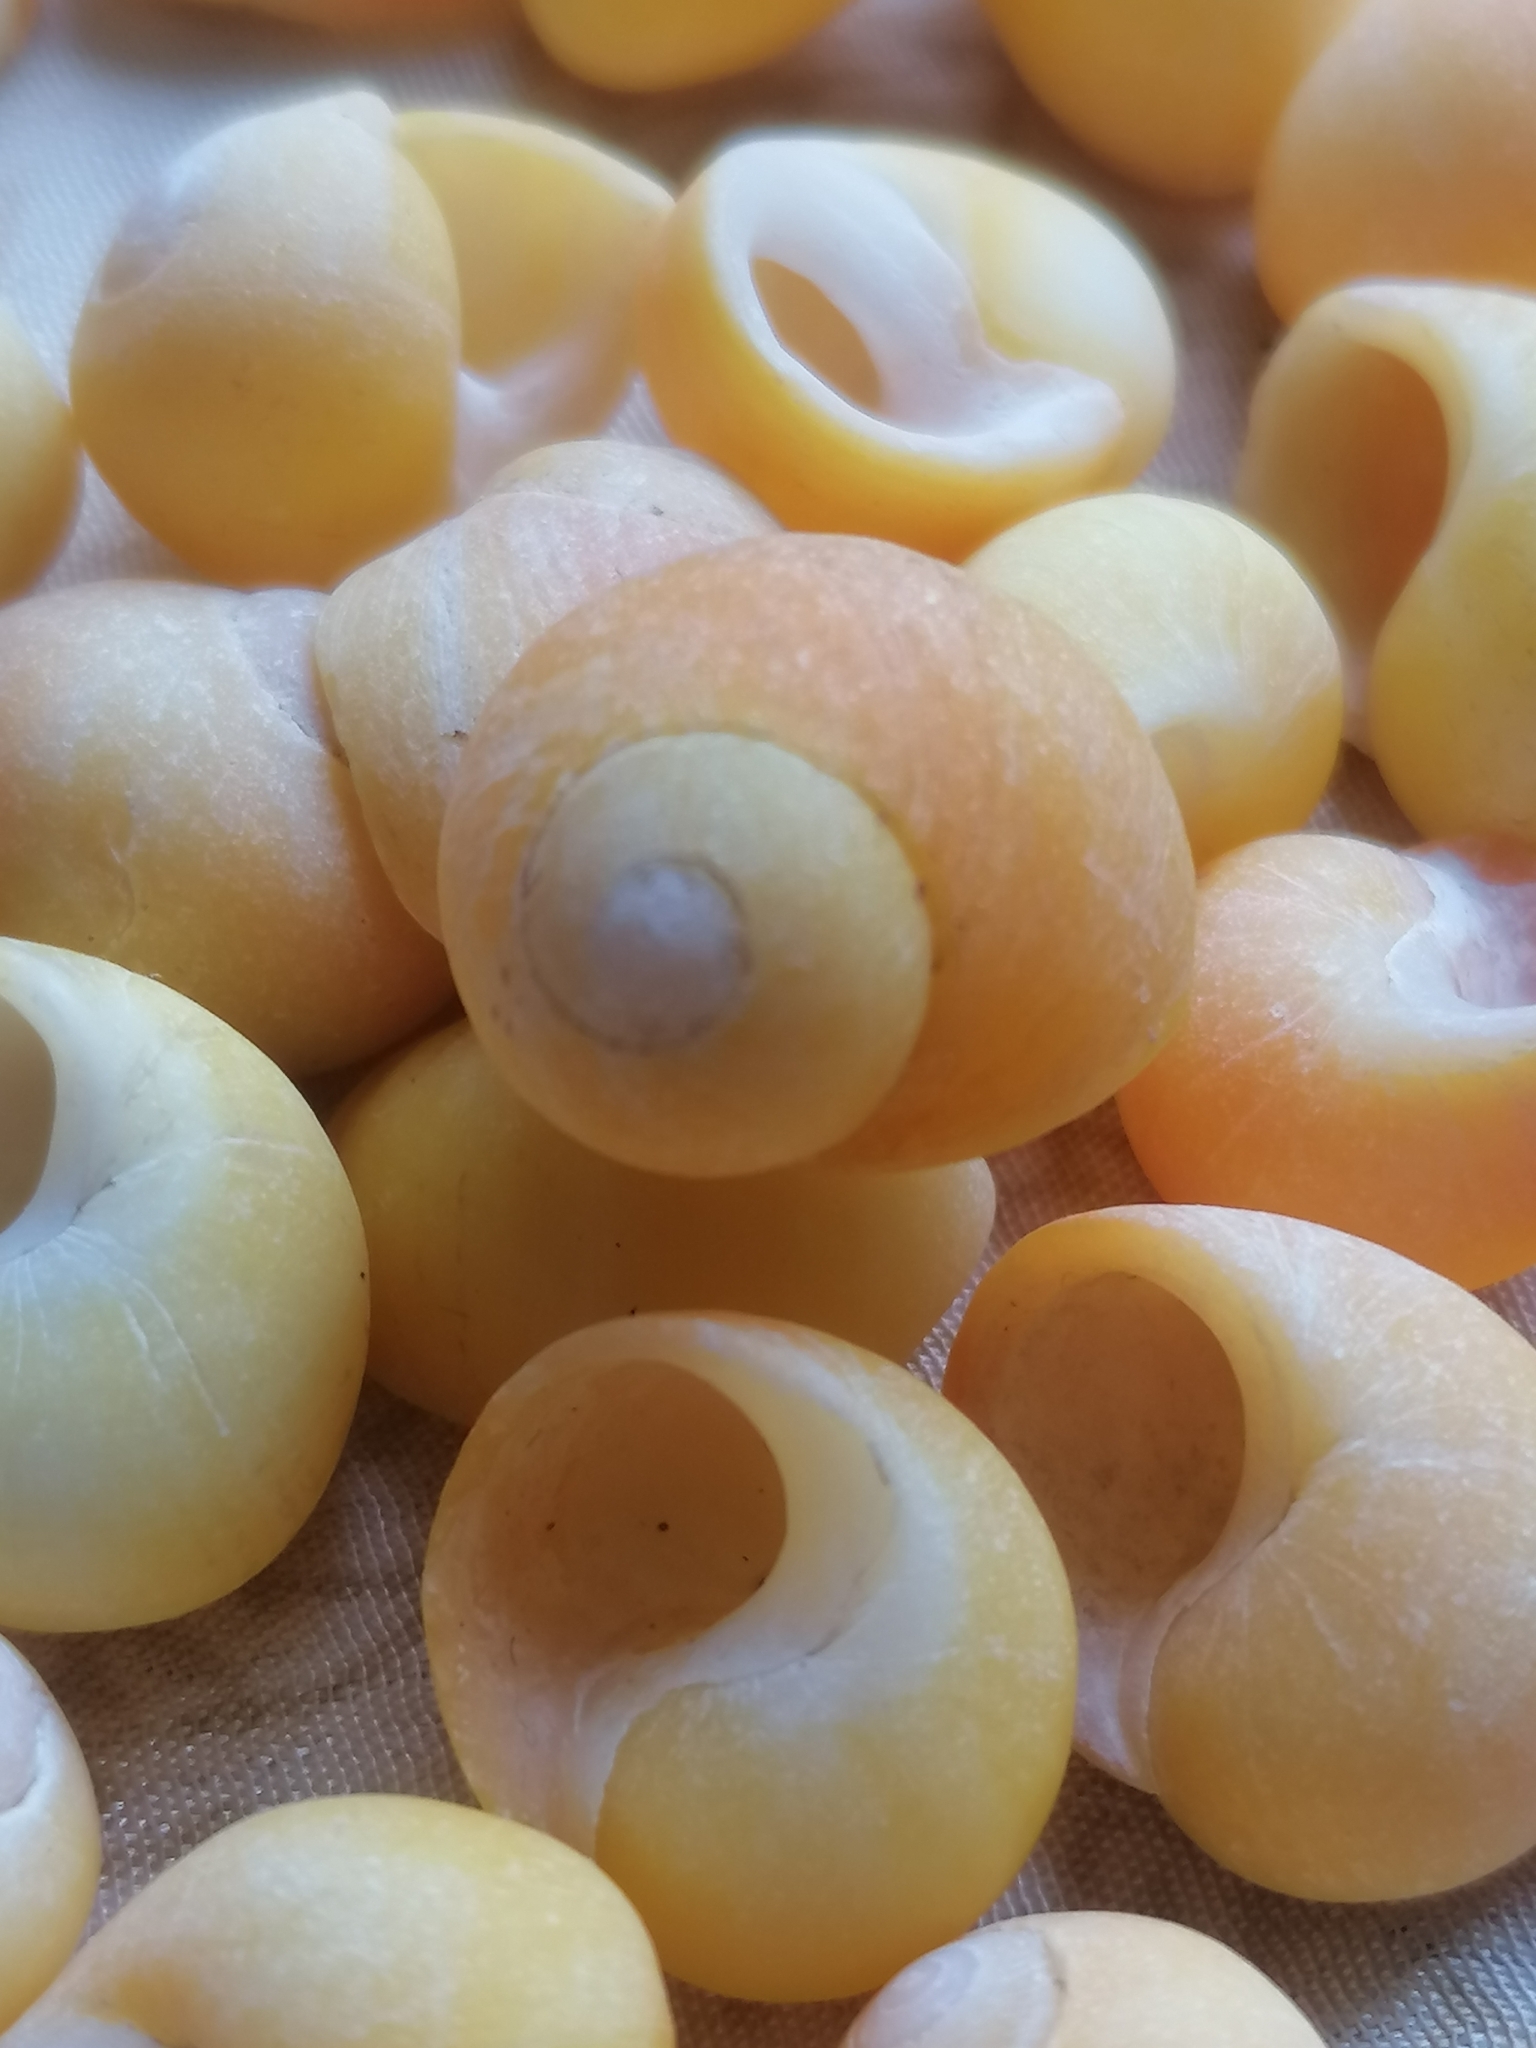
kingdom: Animalia
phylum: Mollusca
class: Gastropoda
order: Littorinimorpha
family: Littorinidae
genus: Littorina
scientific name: Littorina obtusata
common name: Flat periwinkle
